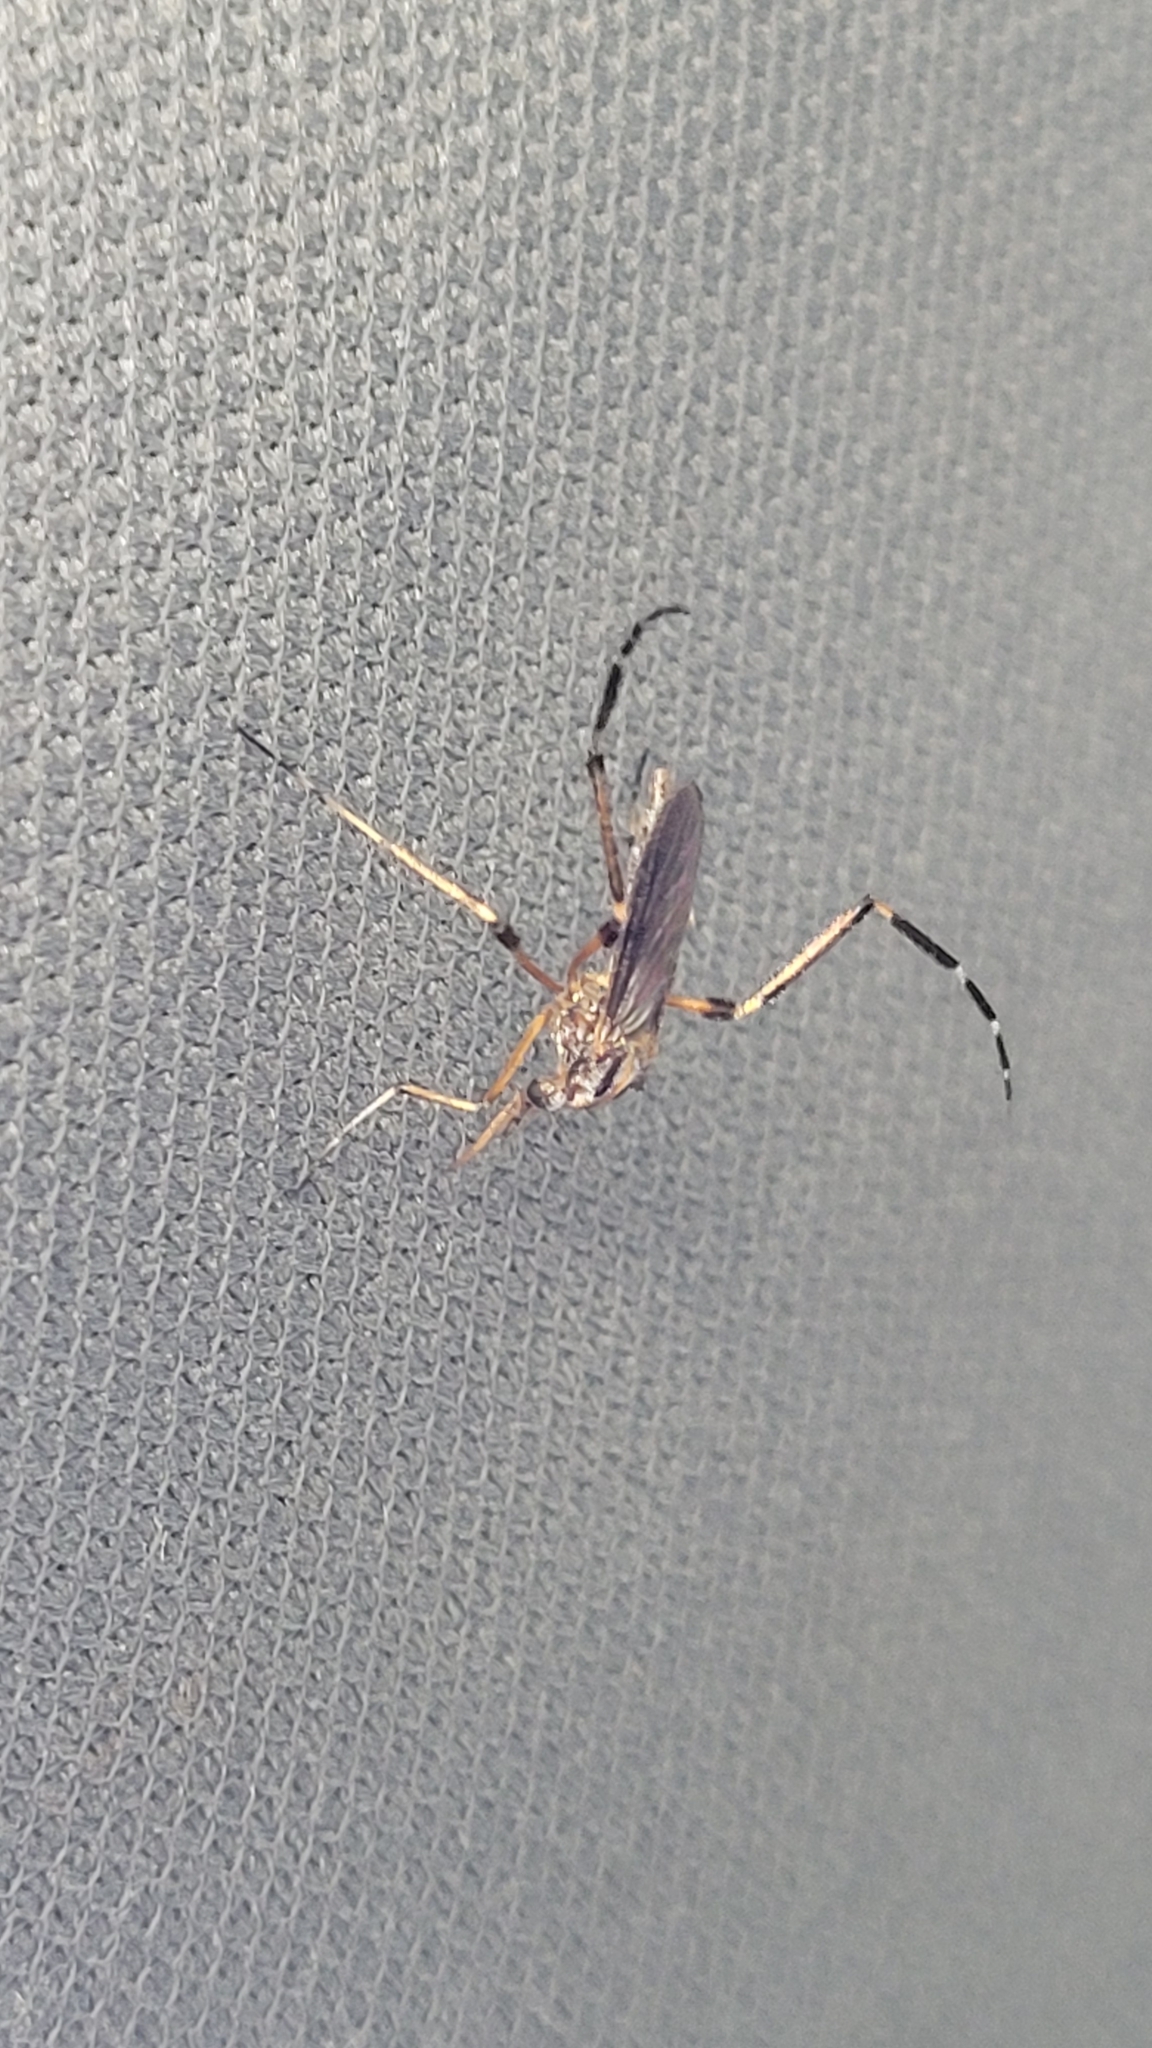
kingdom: Animalia
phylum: Arthropoda
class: Insecta
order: Diptera
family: Culicidae
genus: Psorophora
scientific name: Psorophora ciliata
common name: Gallinipper
